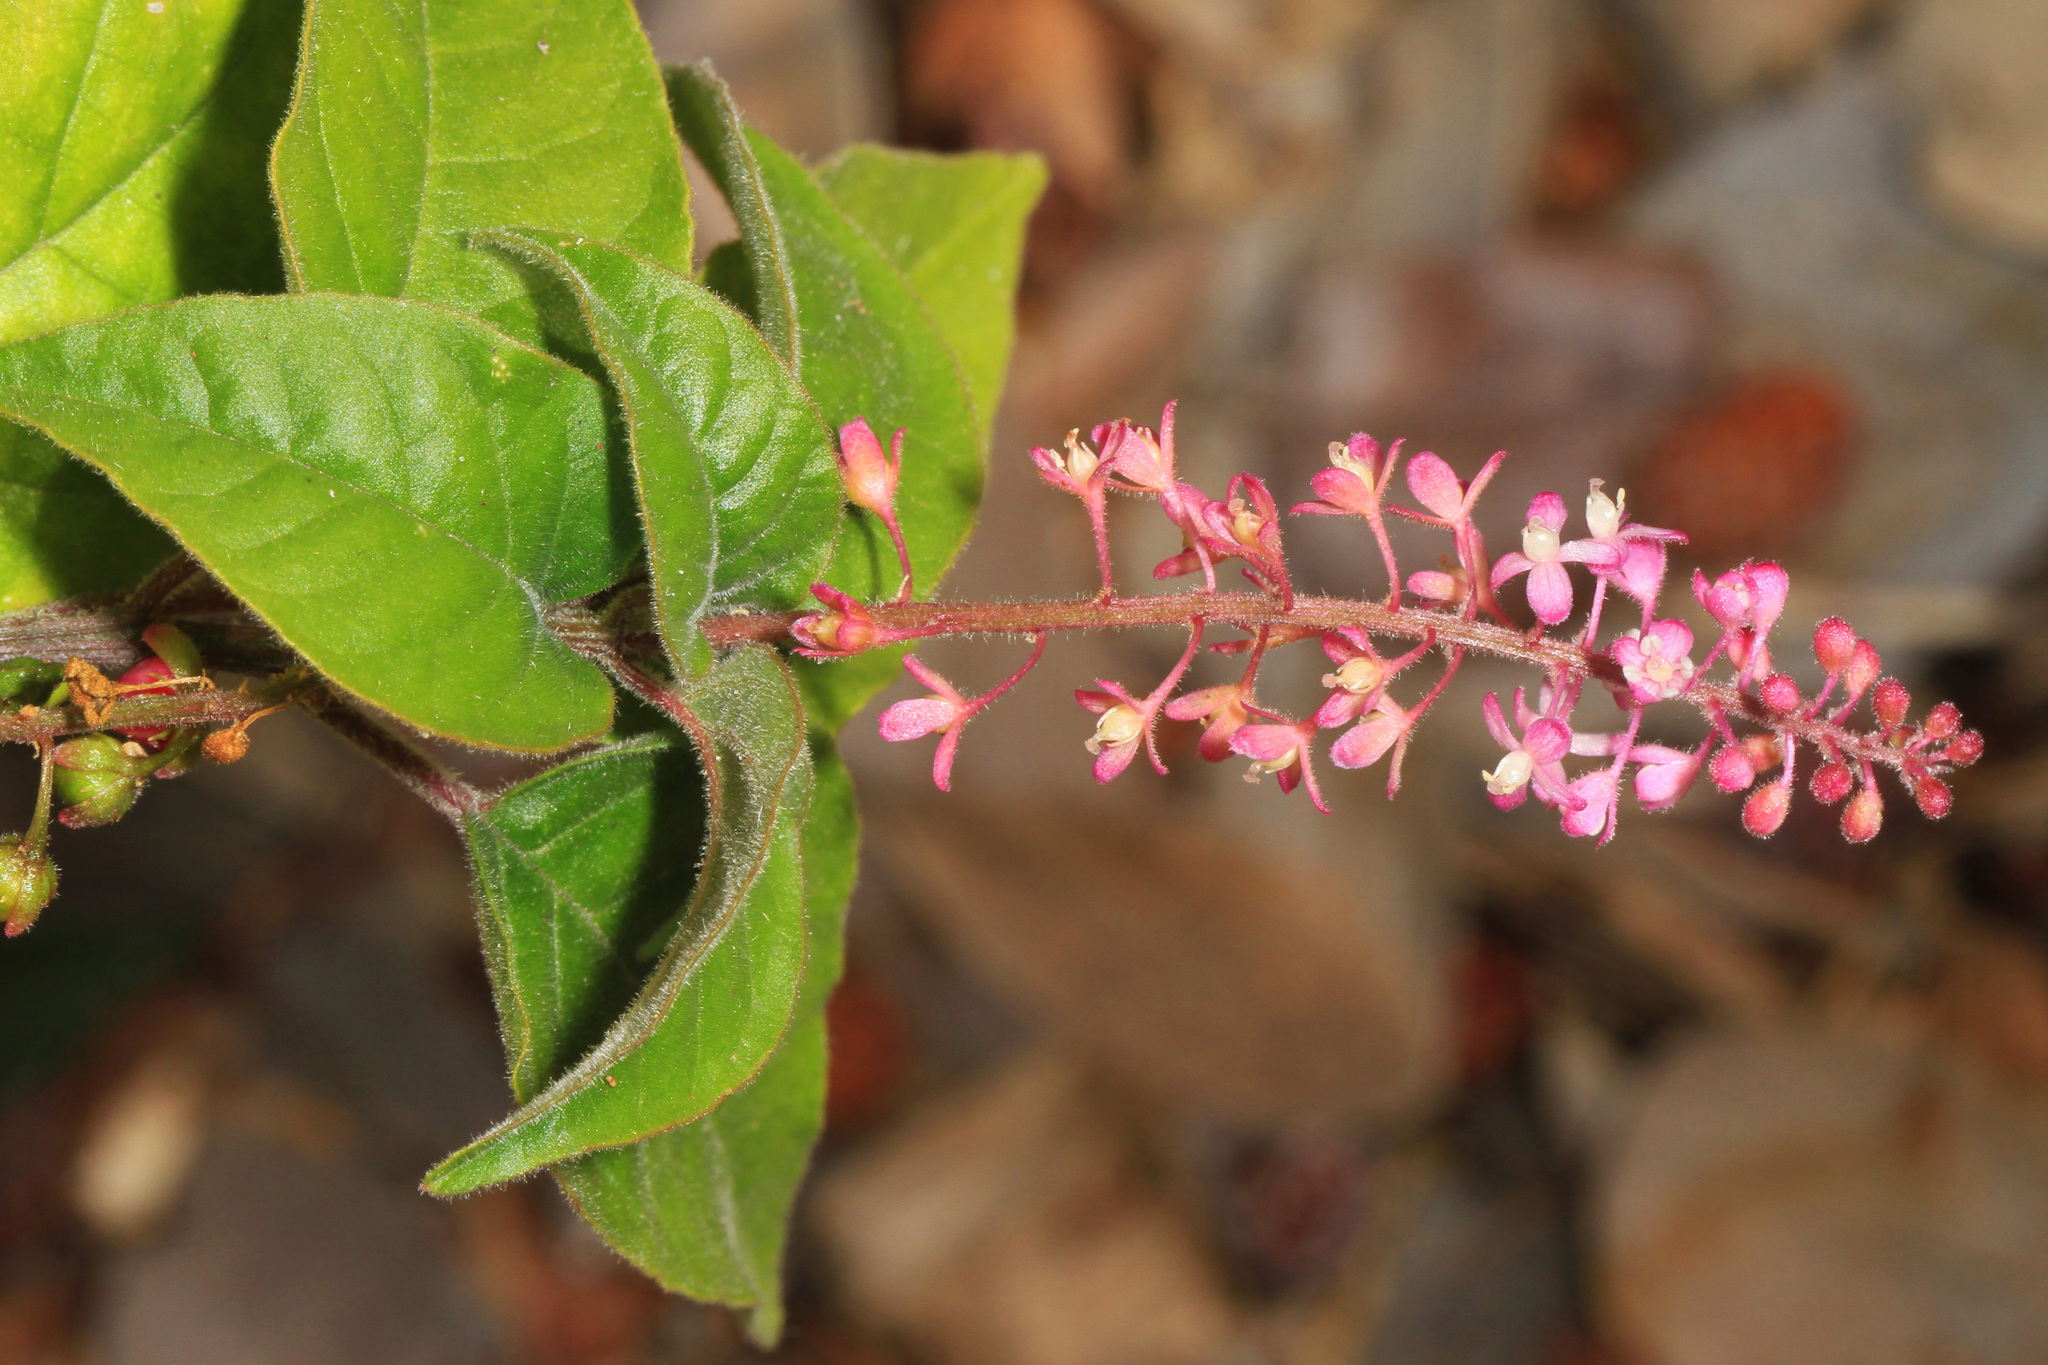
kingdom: Plantae
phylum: Tracheophyta
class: Magnoliopsida
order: Caryophyllales
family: Phytolaccaceae
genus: Rivina
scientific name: Rivina humilis
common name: Rougeplant
